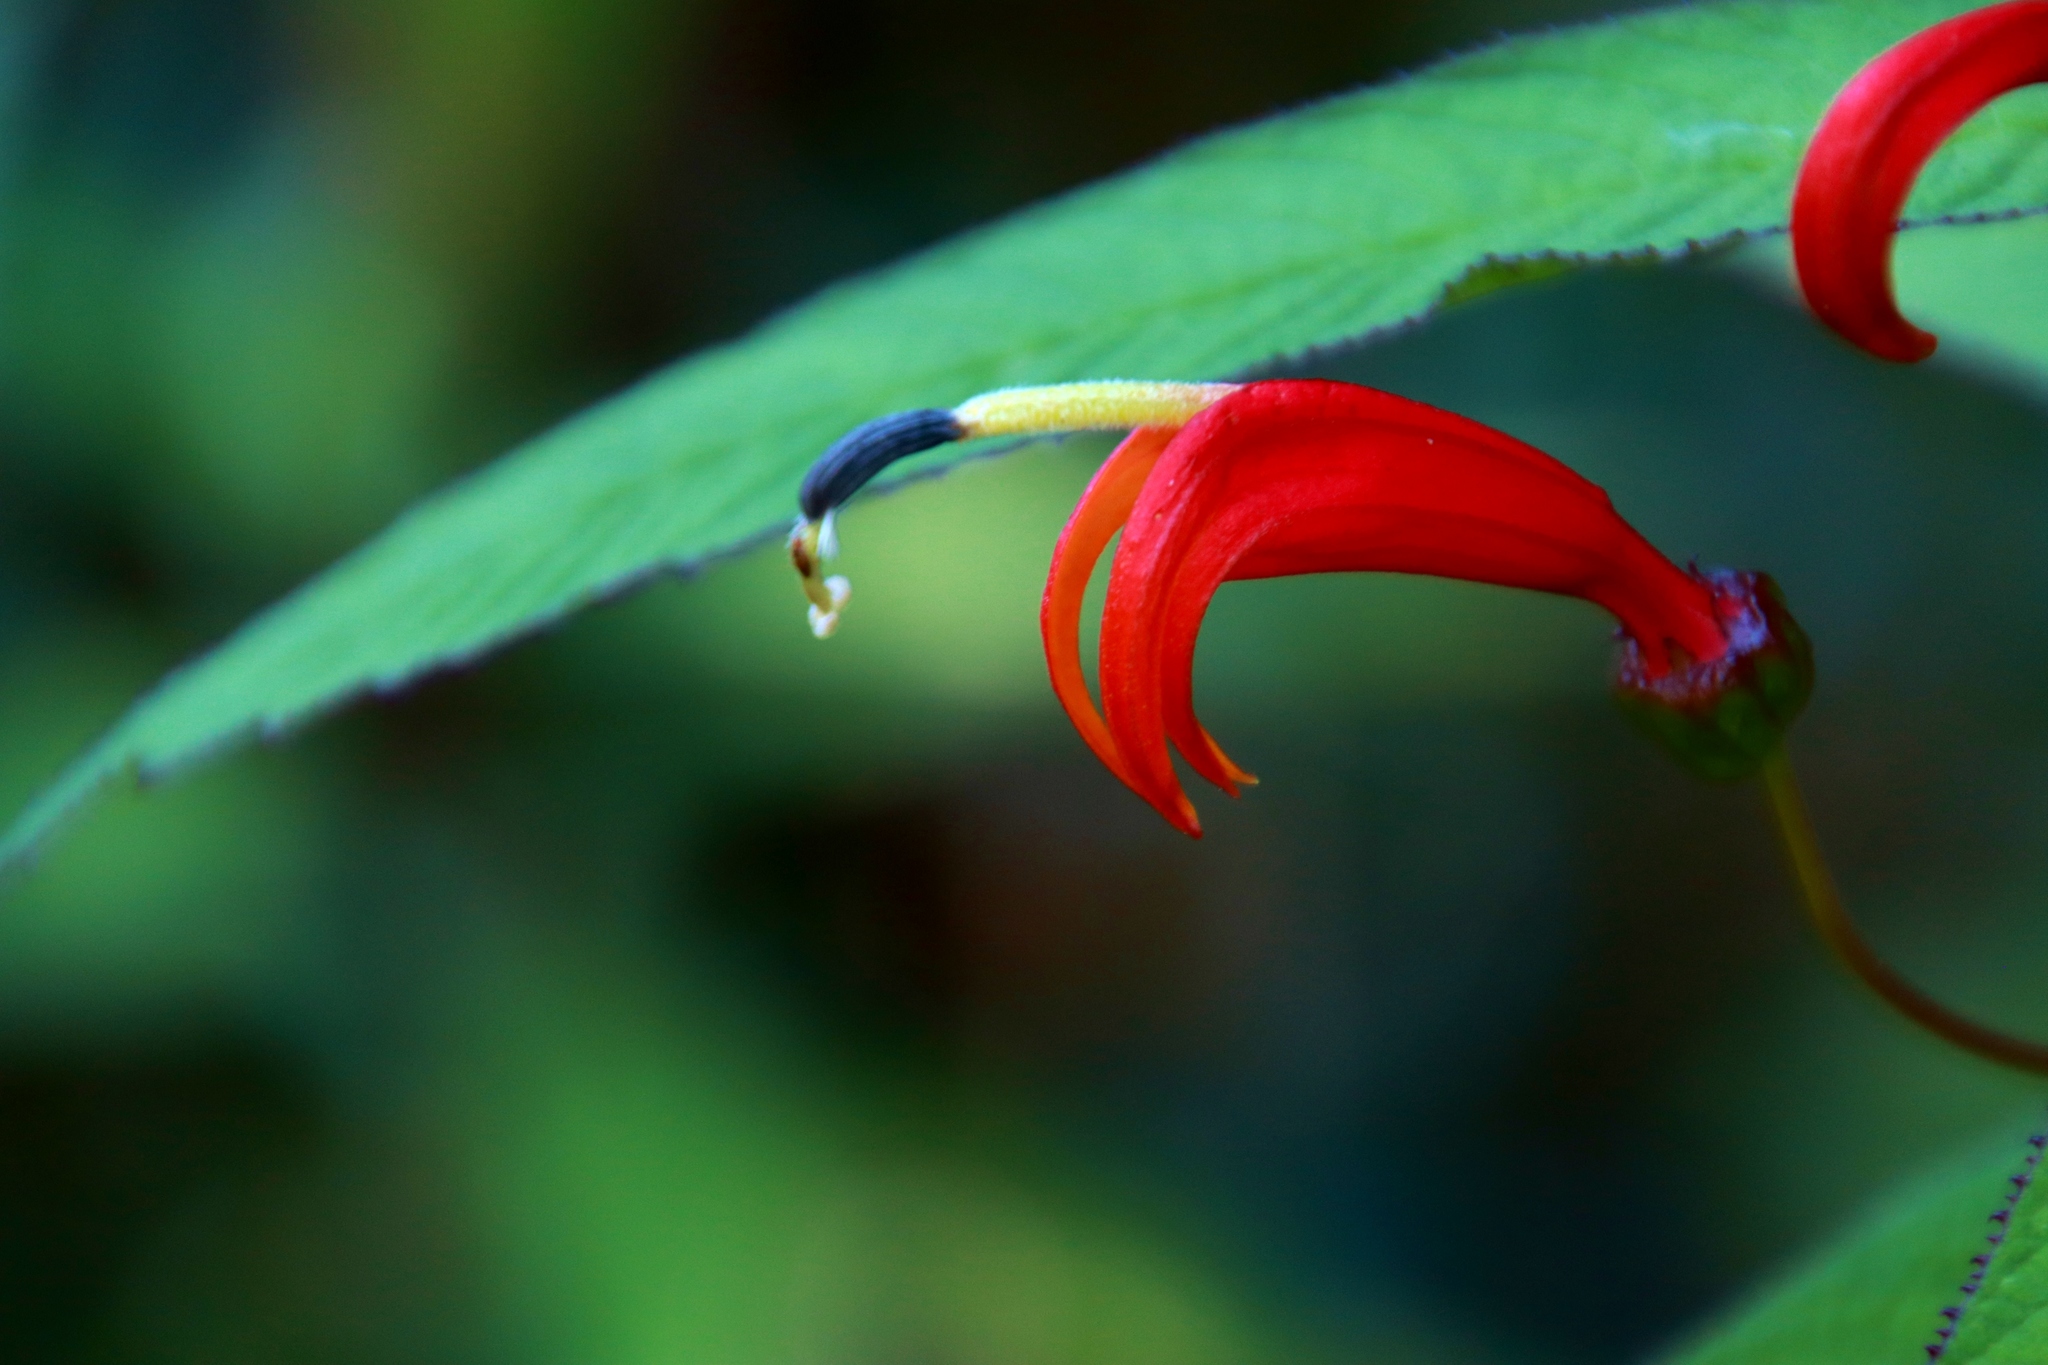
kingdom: Plantae
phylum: Tracheophyta
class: Magnoliopsida
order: Asterales
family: Campanulaceae
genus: Centropogon
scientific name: Centropogon valerii
